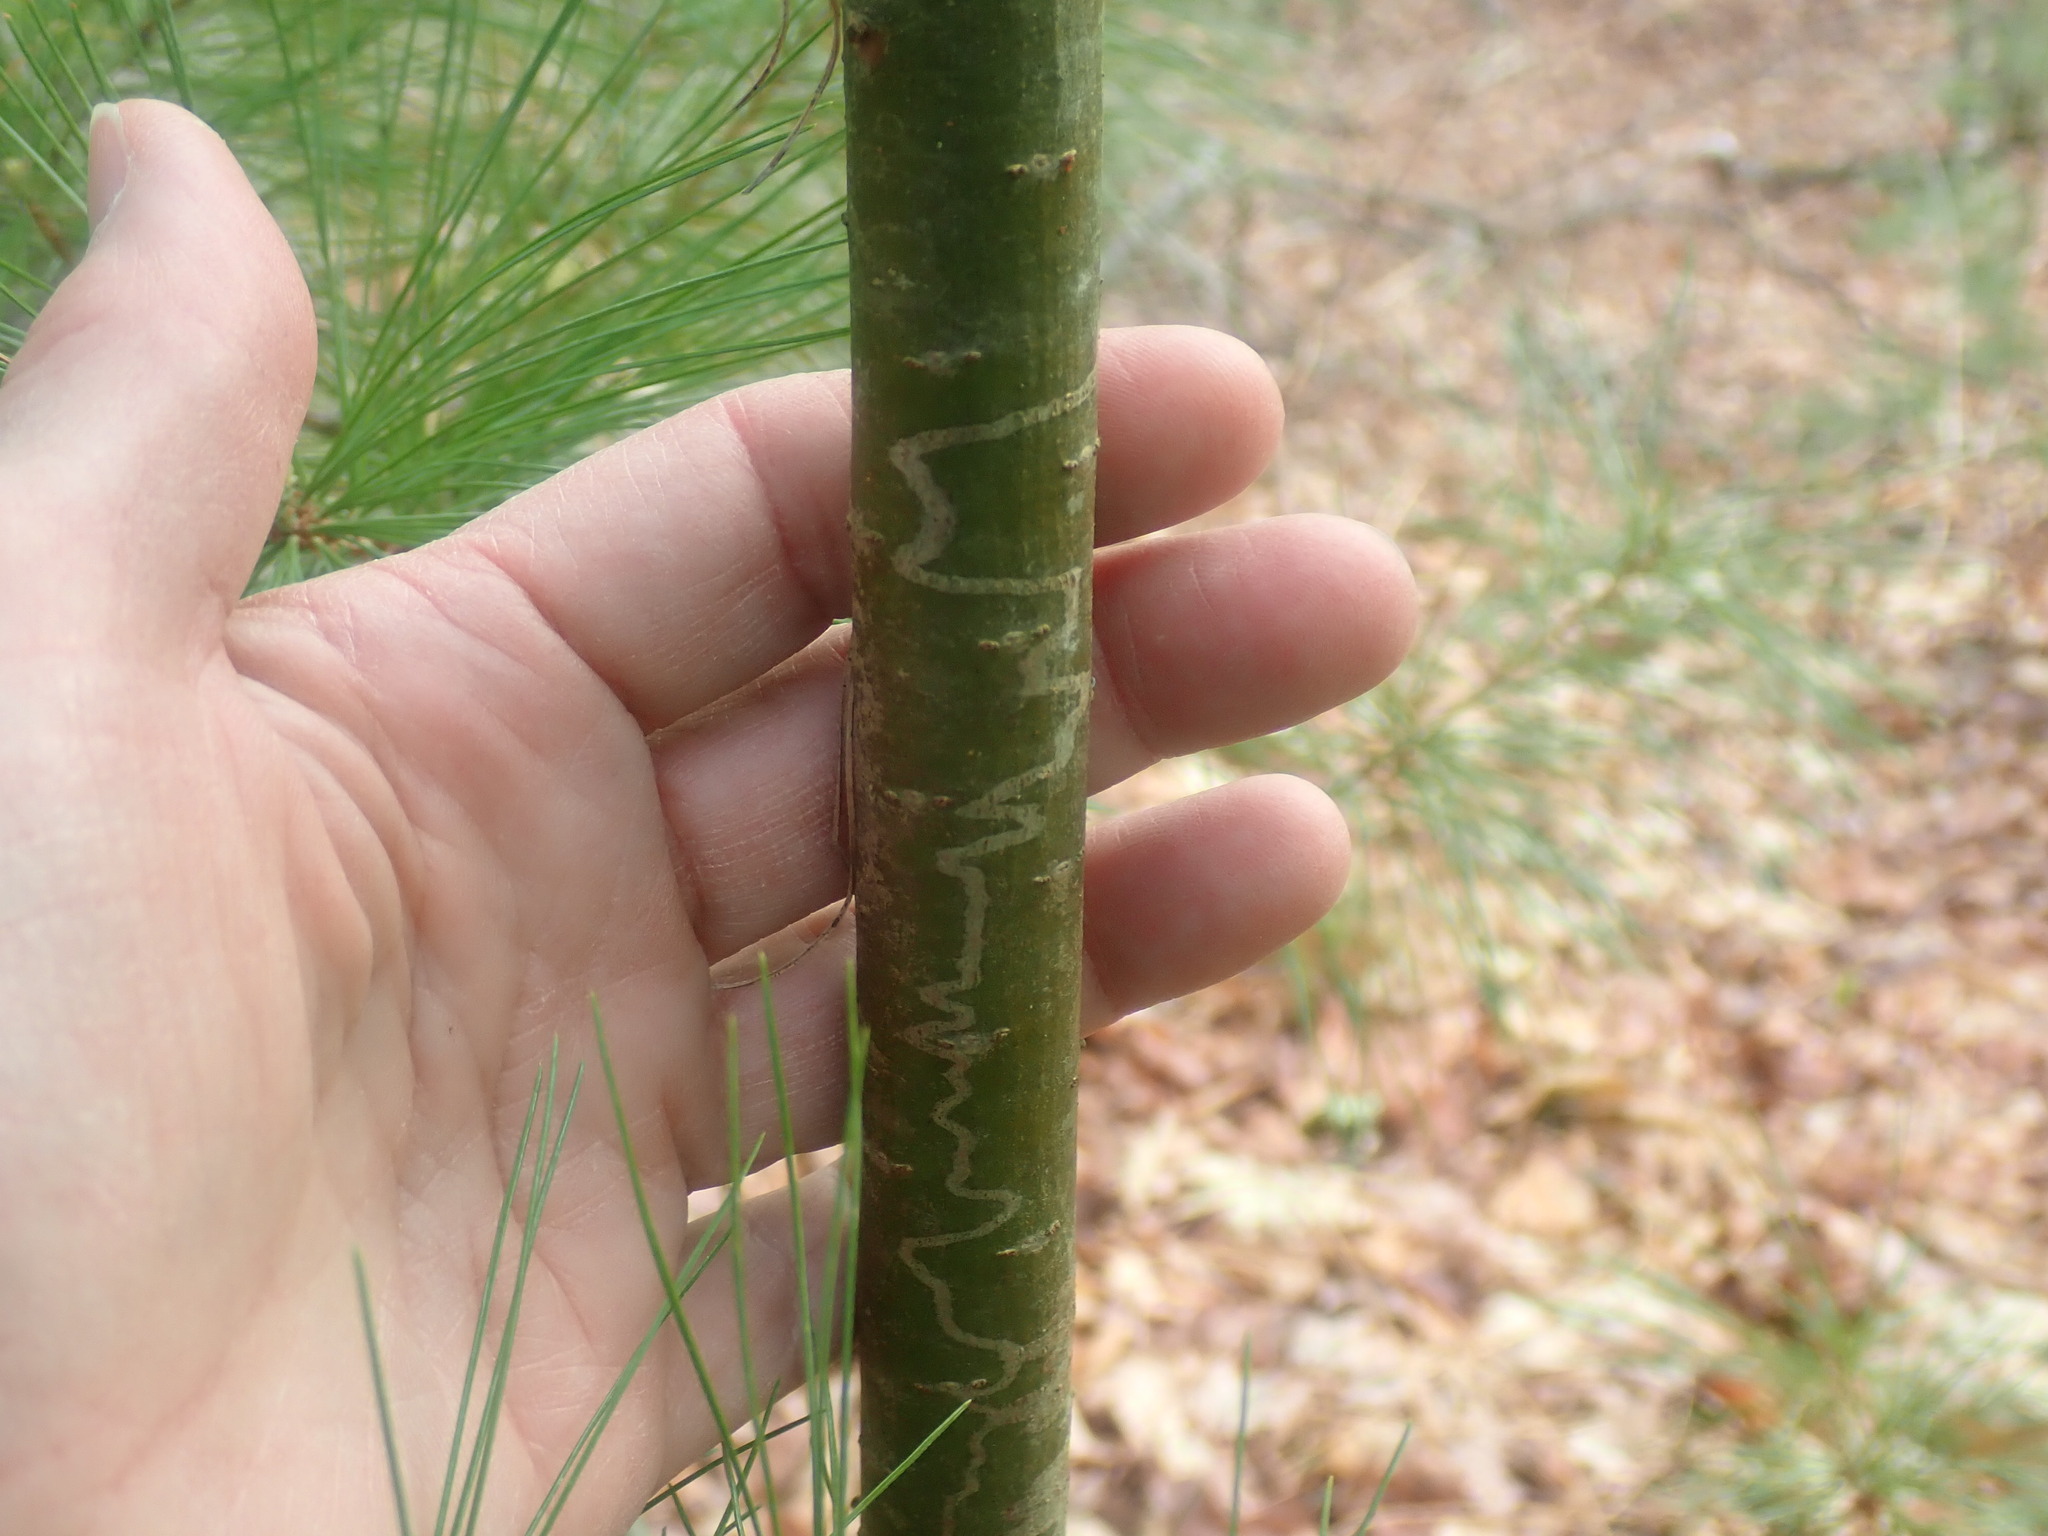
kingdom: Animalia
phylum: Arthropoda
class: Insecta
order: Lepidoptera
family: Gracillariidae
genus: Marmara
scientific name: Marmara fasciella
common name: White pine barkminer moth
